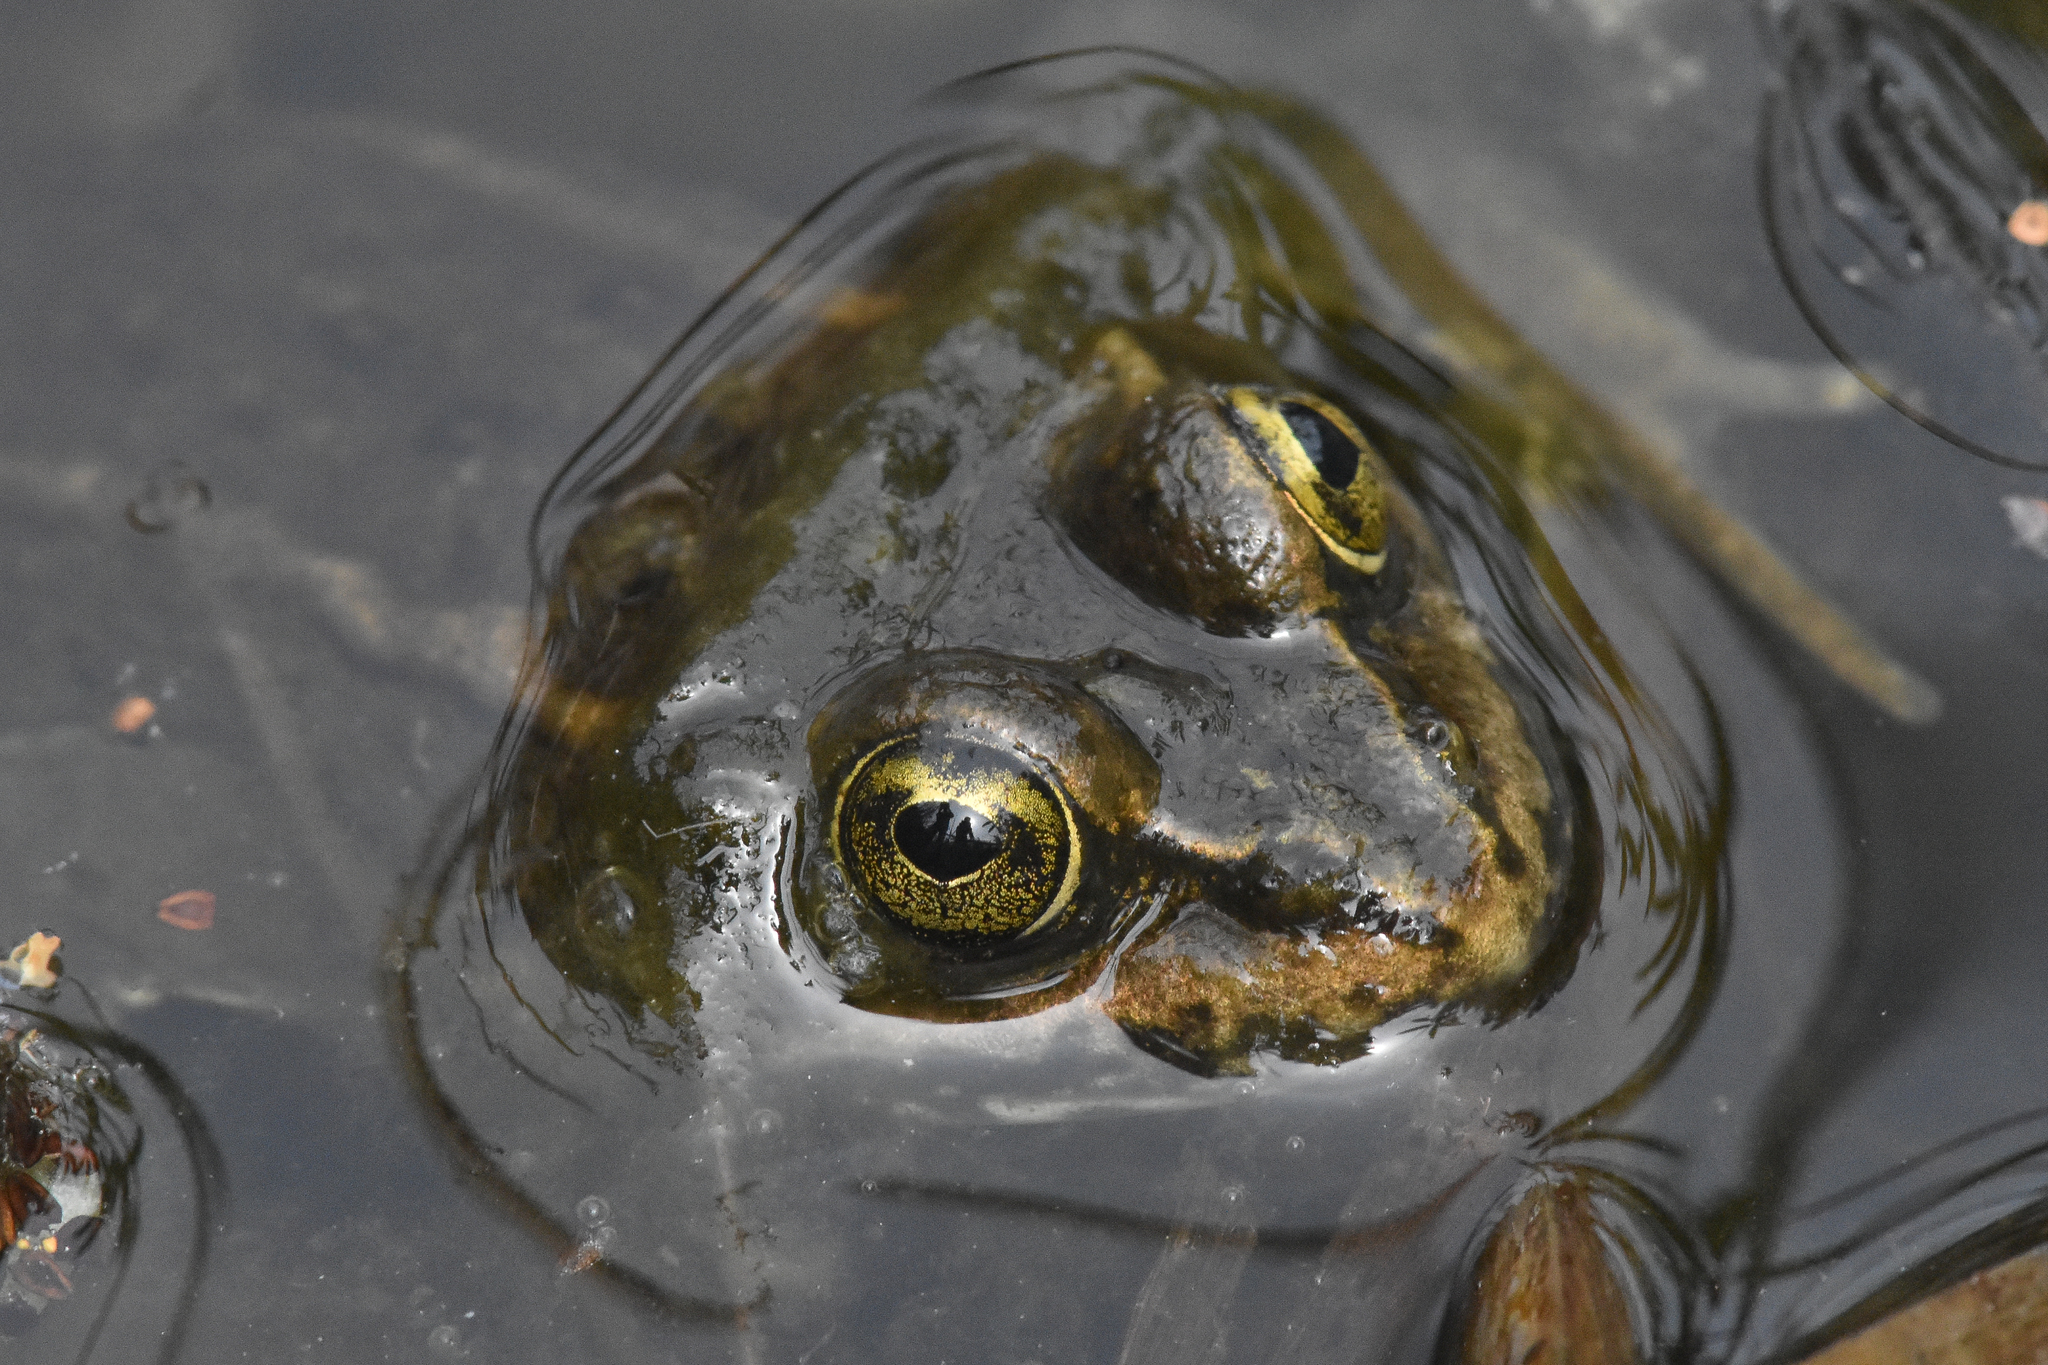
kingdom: Animalia
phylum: Chordata
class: Amphibia
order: Anura
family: Ranidae
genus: Rana
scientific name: Rana luteiventris
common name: Columbia spotted frog
